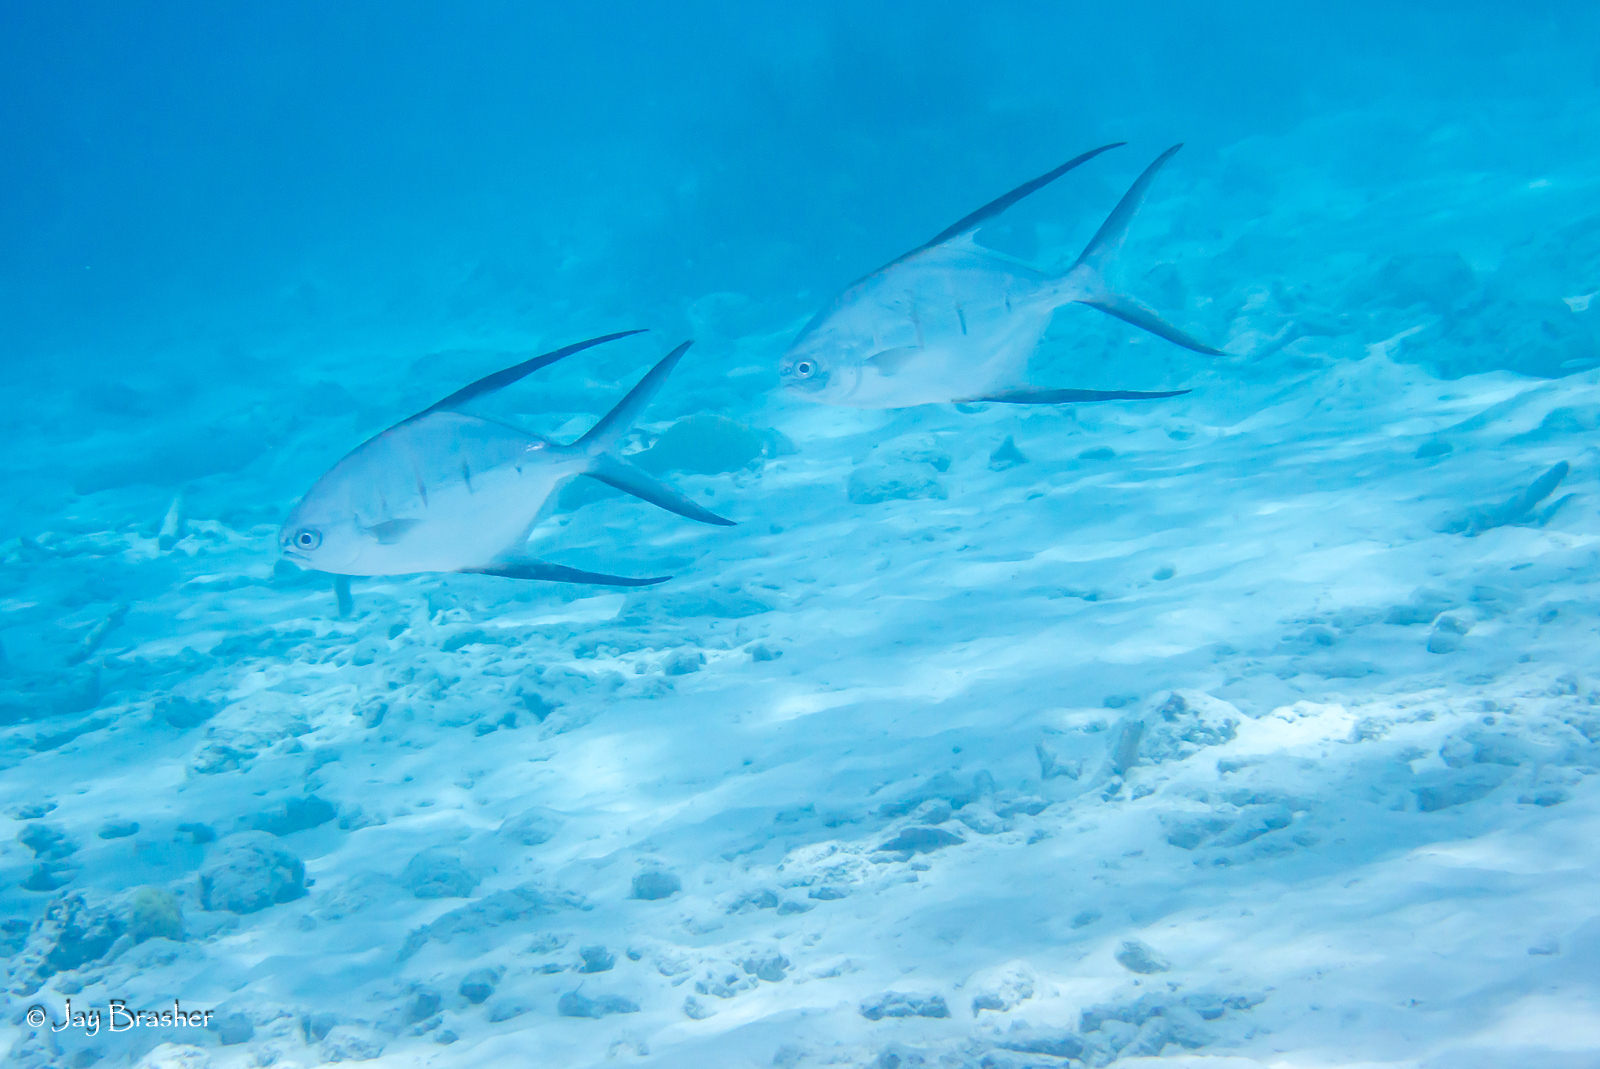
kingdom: Animalia
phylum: Chordata
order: Perciformes
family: Carangidae
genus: Trachinotus
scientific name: Trachinotus goodei
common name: Palometa
